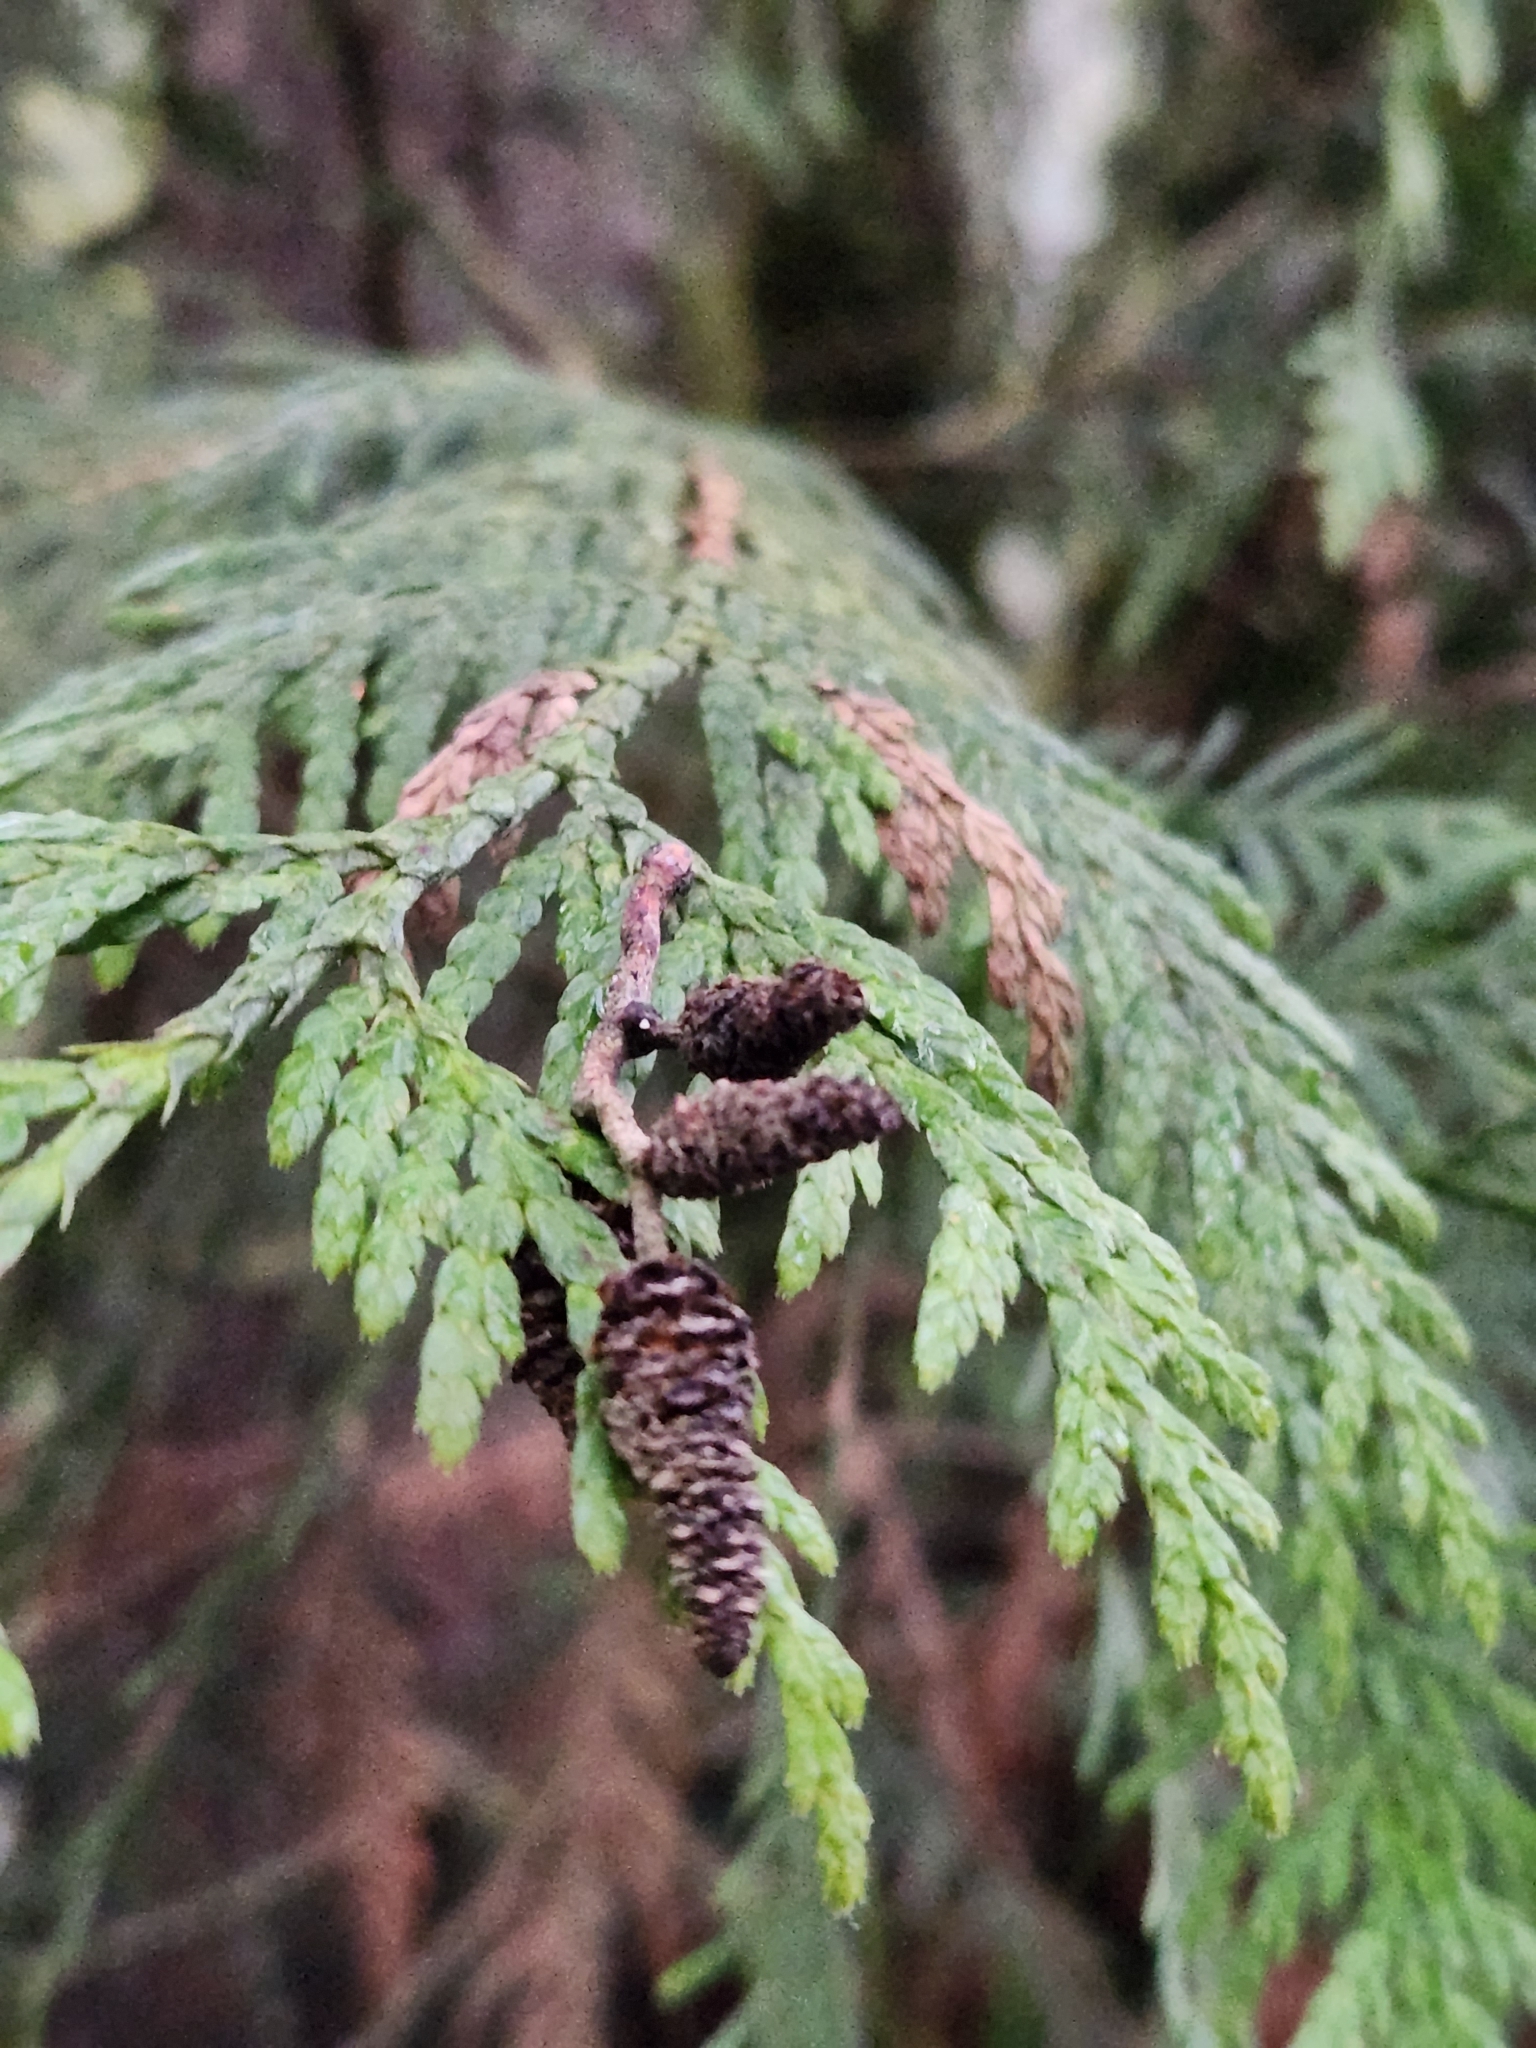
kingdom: Plantae
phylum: Tracheophyta
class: Pinopsida
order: Pinales
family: Cupressaceae
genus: Thuja
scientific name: Thuja plicata
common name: Western red-cedar
